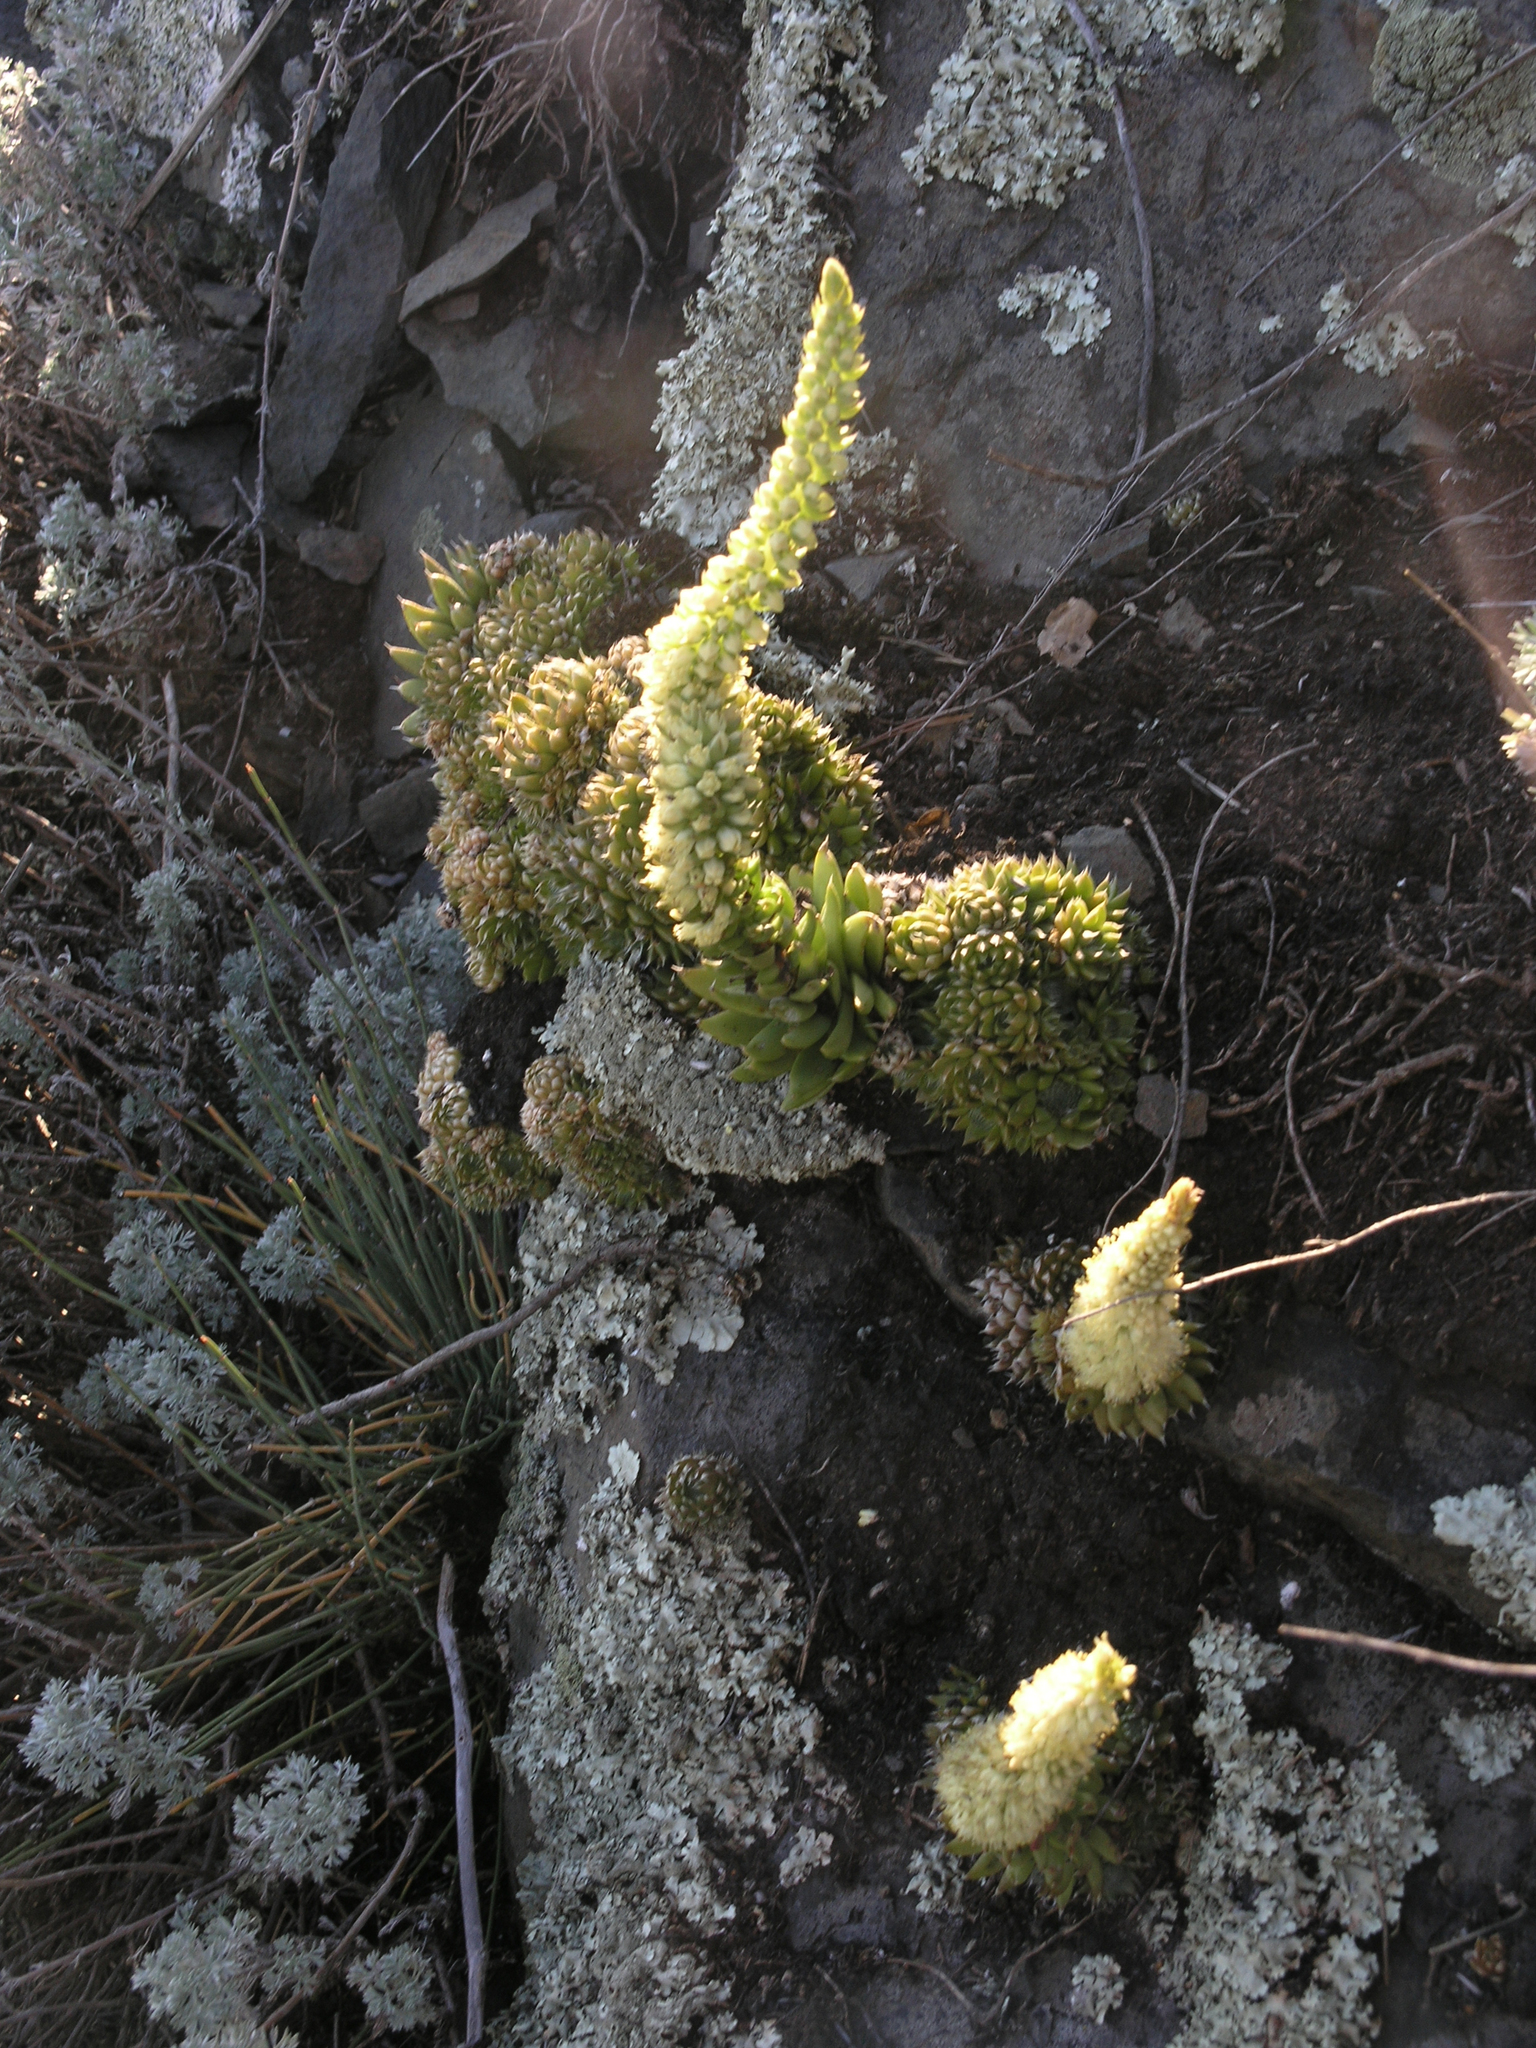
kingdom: Plantae
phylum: Tracheophyta
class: Magnoliopsida
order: Saxifragales
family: Crassulaceae
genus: Orostachys
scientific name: Orostachys spinosa
